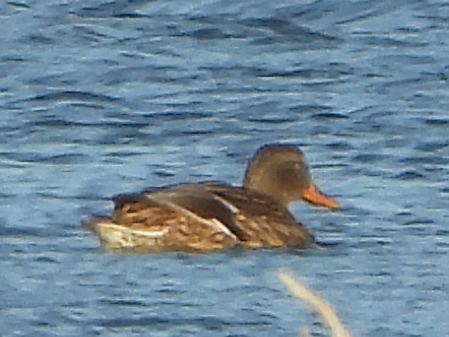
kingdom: Animalia
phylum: Chordata
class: Aves
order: Anseriformes
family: Anatidae
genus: Mareca
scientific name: Mareca strepera
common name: Gadwall
